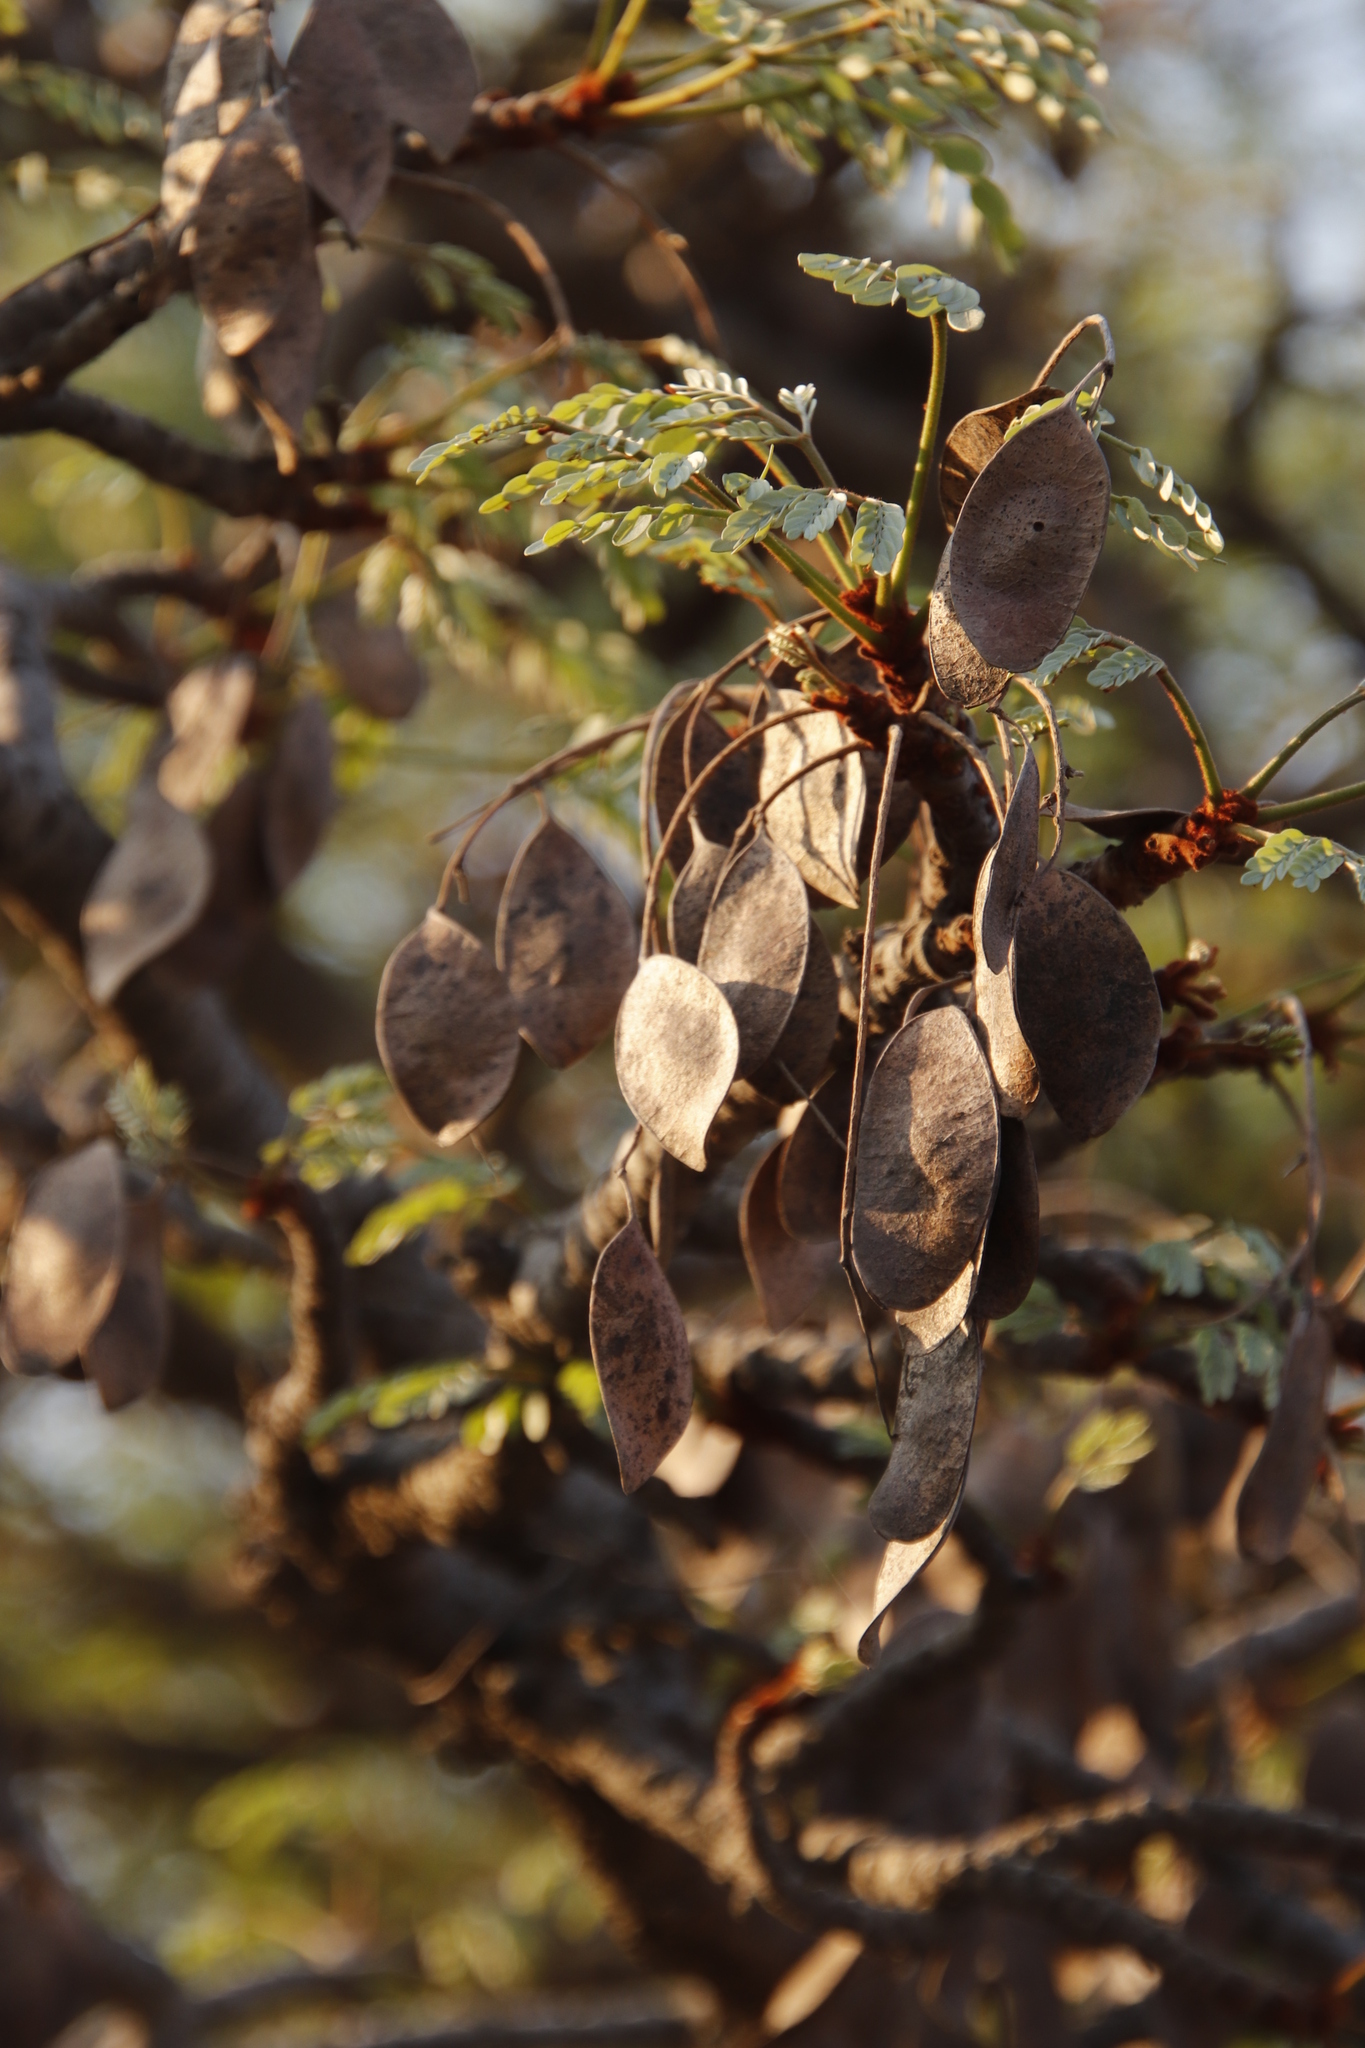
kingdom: Plantae
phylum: Tracheophyta
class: Magnoliopsida
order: Fabales
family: Fabaceae
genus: Burkea
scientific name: Burkea africana
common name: Mkalati tree
